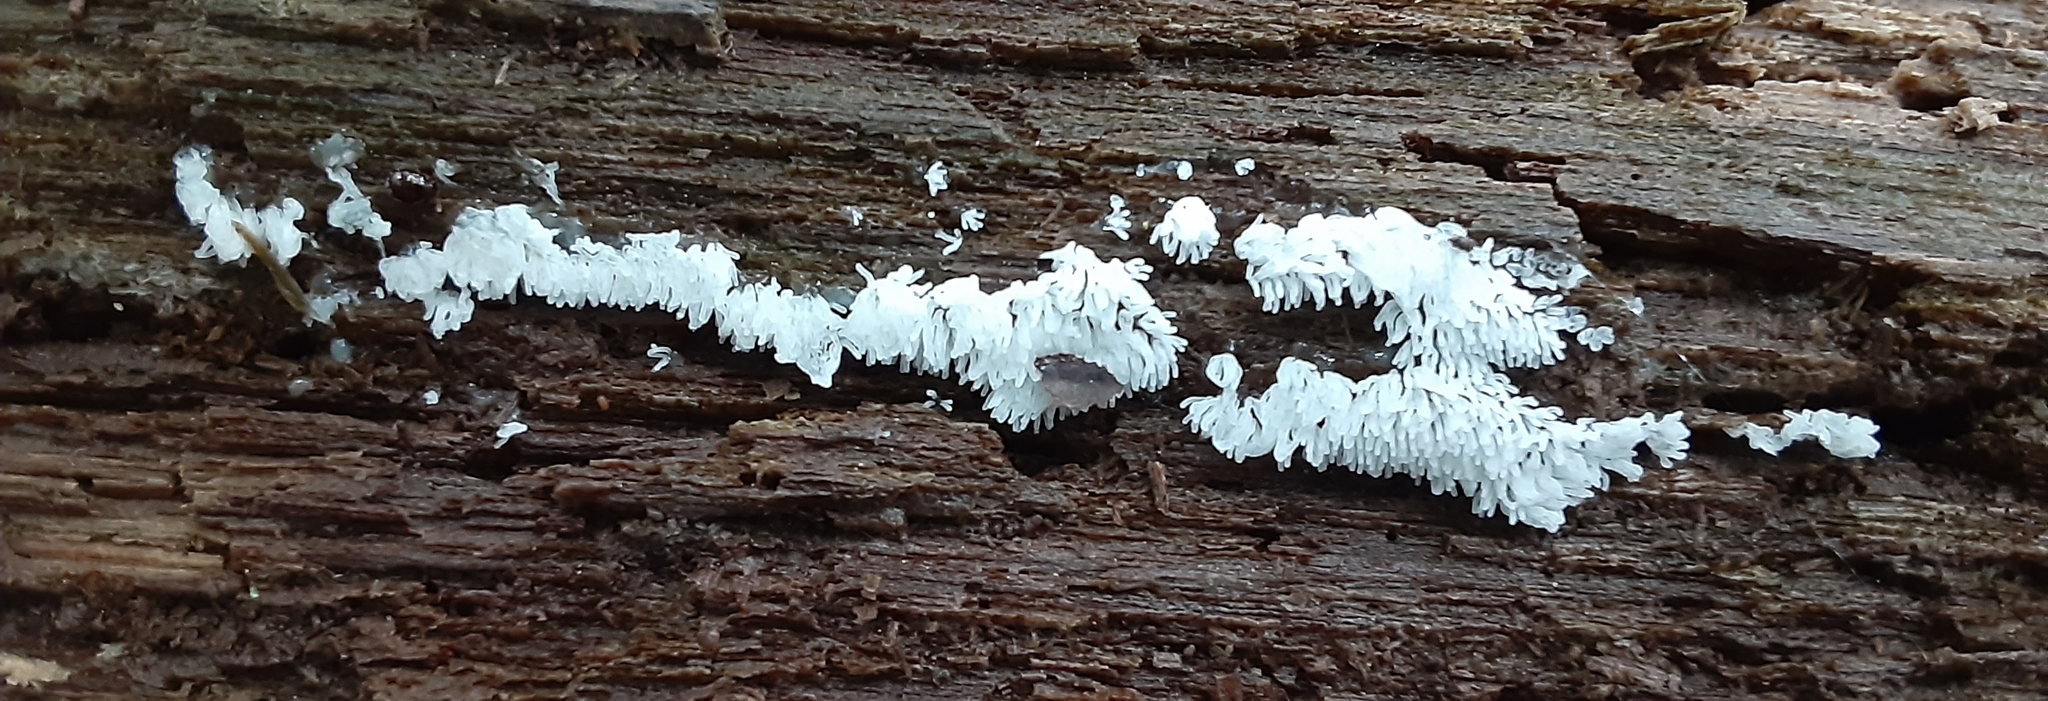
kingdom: Protozoa
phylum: Mycetozoa
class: Protosteliomycetes
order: Ceratiomyxales
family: Ceratiomyxaceae
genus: Ceratiomyxa
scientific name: Ceratiomyxa fruticulosa
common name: Honeycomb coral slime mold
